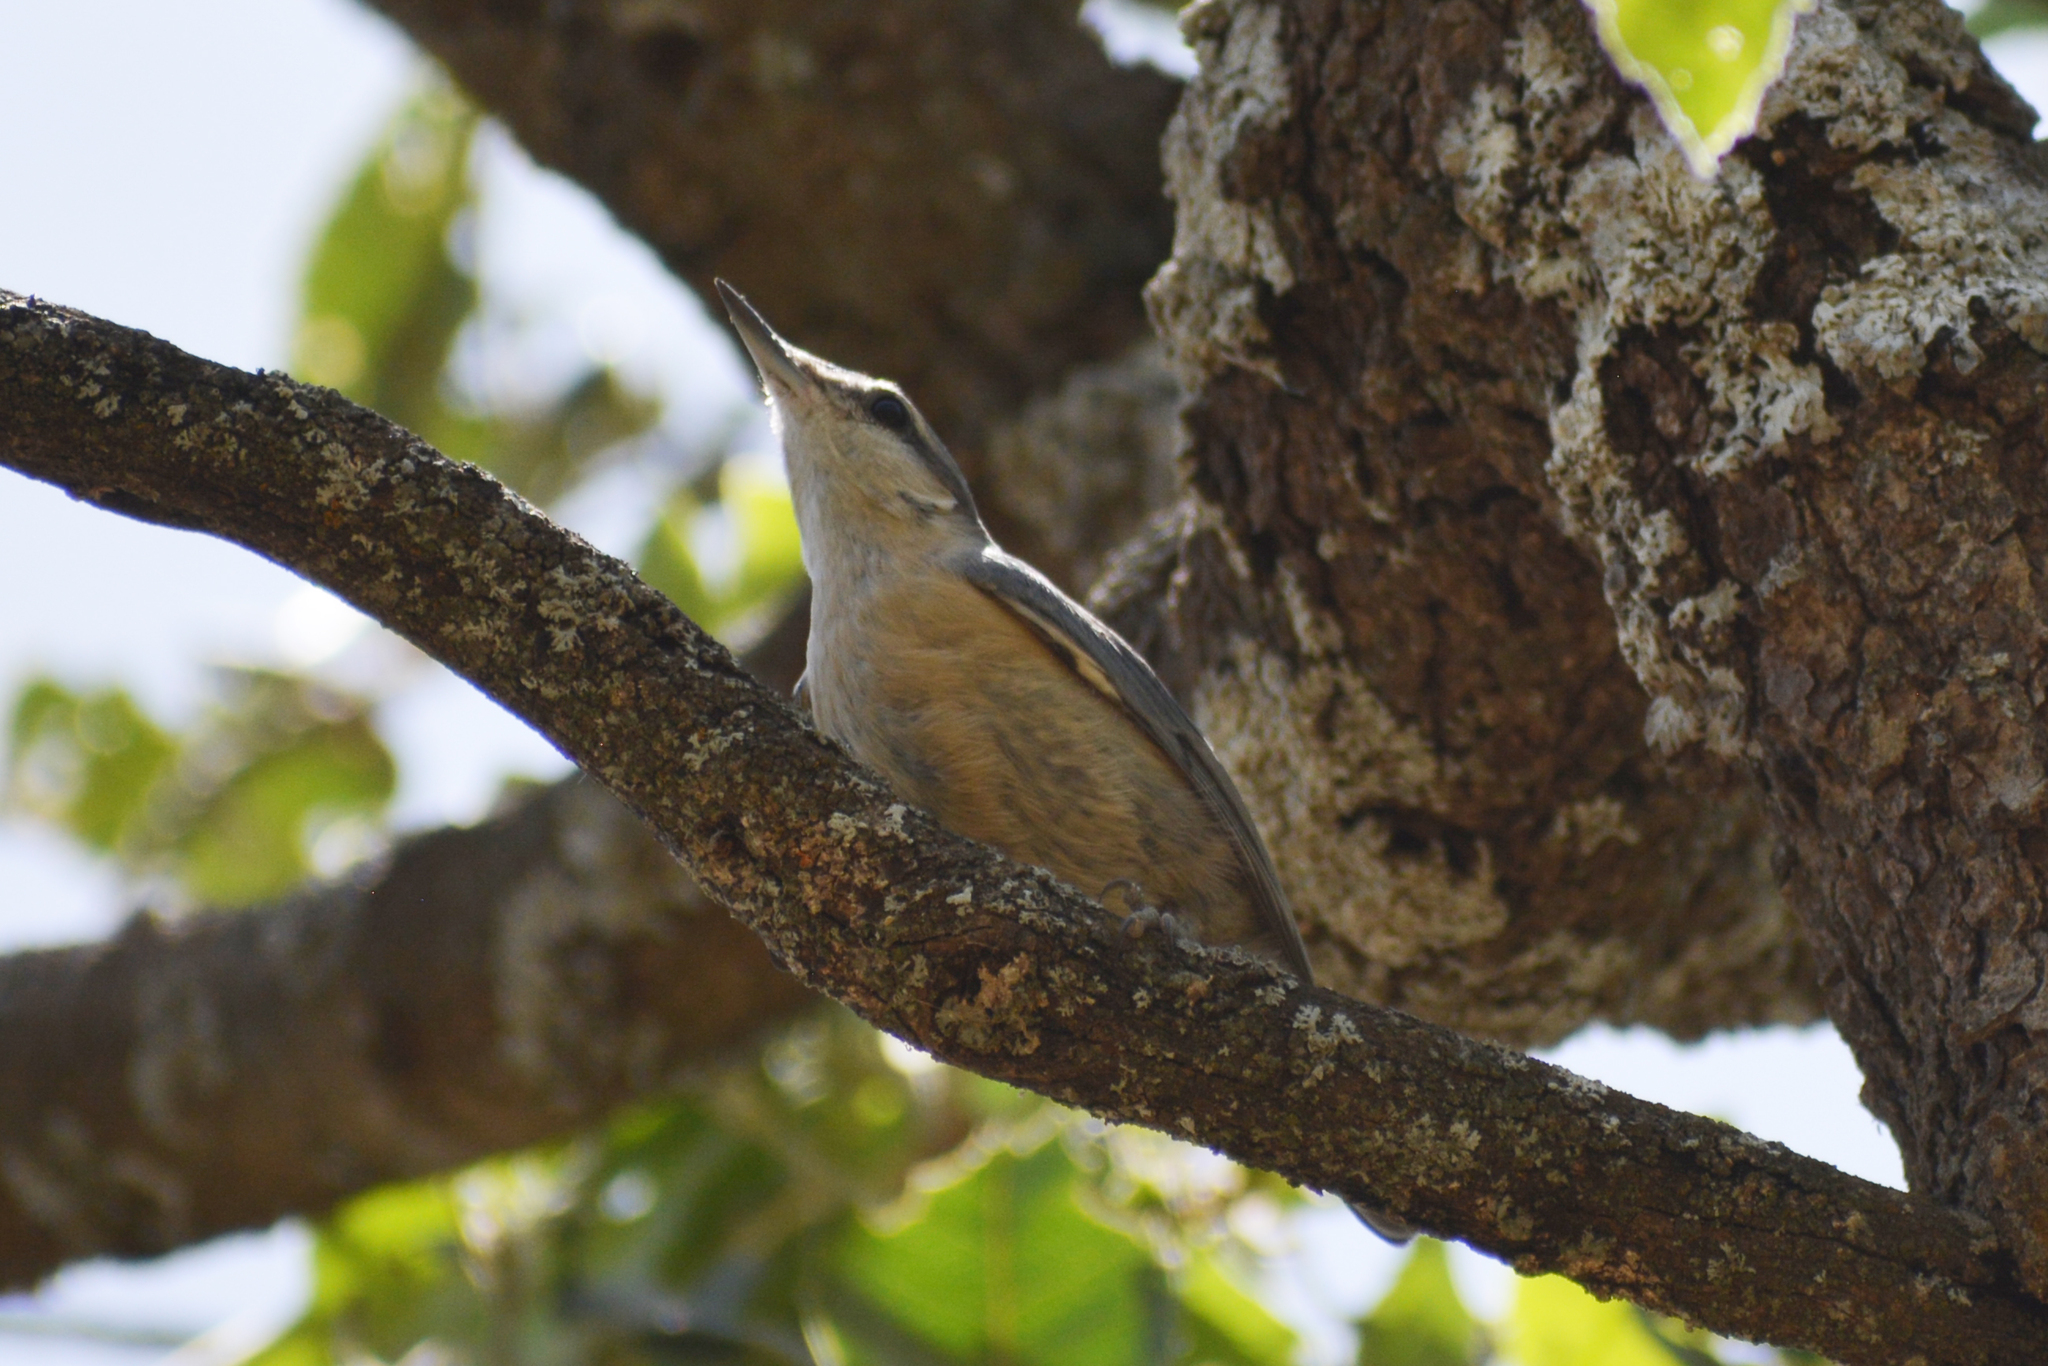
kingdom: Animalia
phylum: Chordata
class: Aves
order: Passeriformes
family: Sittidae
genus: Sitta
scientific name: Sitta europaea
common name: Eurasian nuthatch
